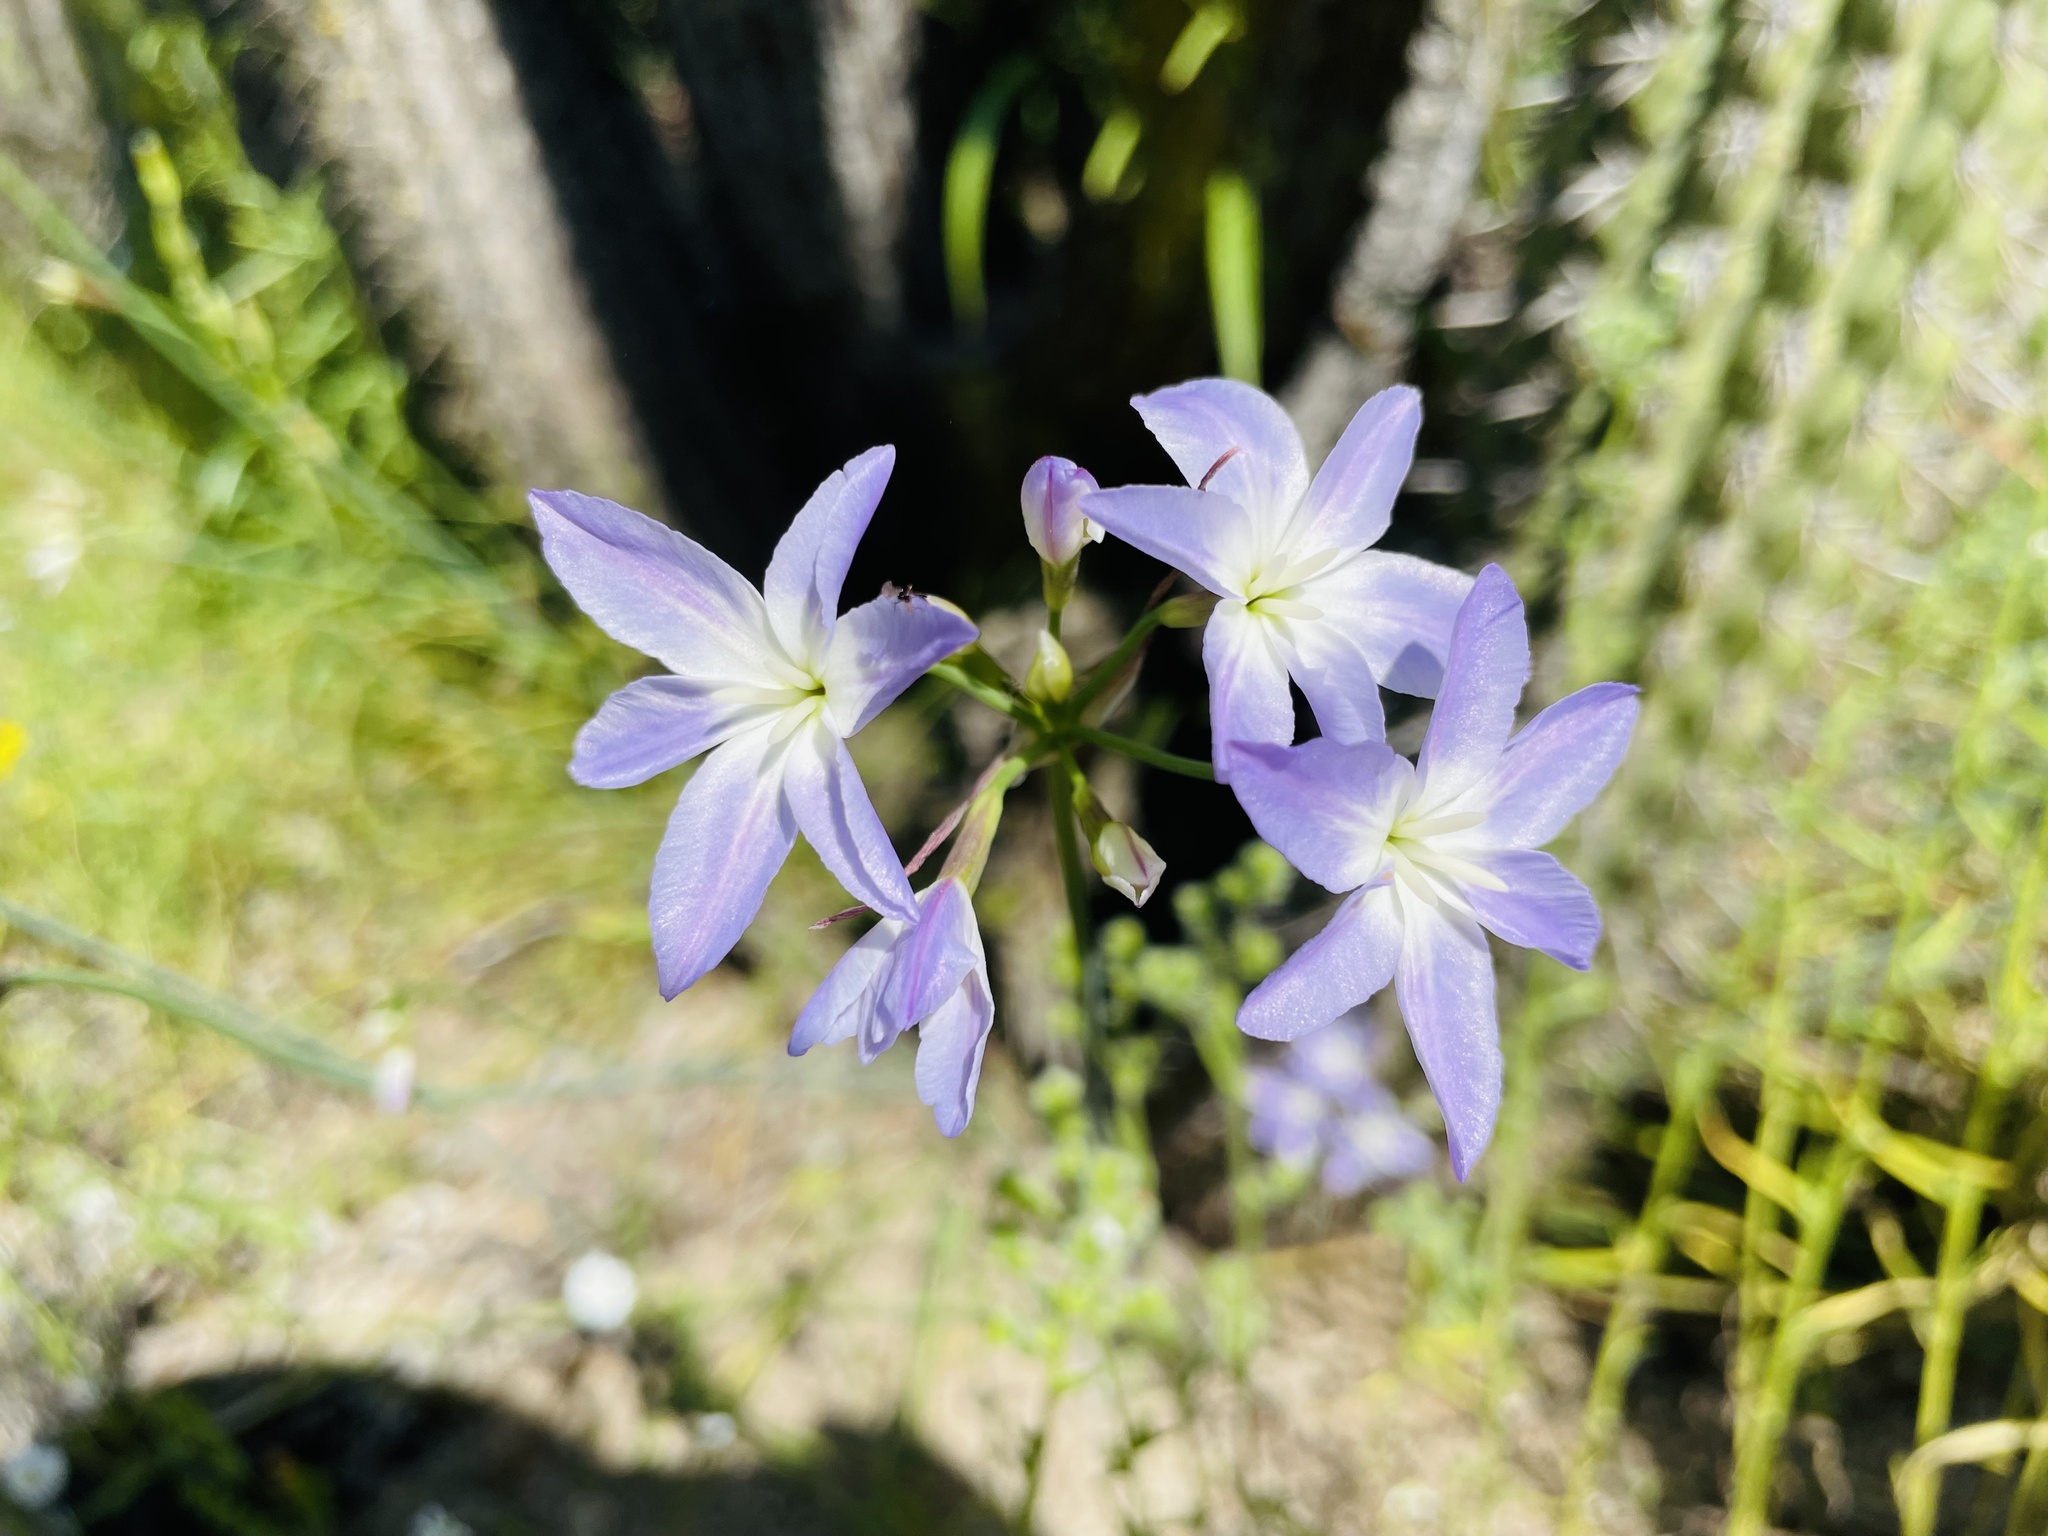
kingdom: Plantae
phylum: Tracheophyta
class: Liliopsida
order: Asparagales
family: Amaryllidaceae
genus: Leucocoryne
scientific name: Leucocoryne violacescens
